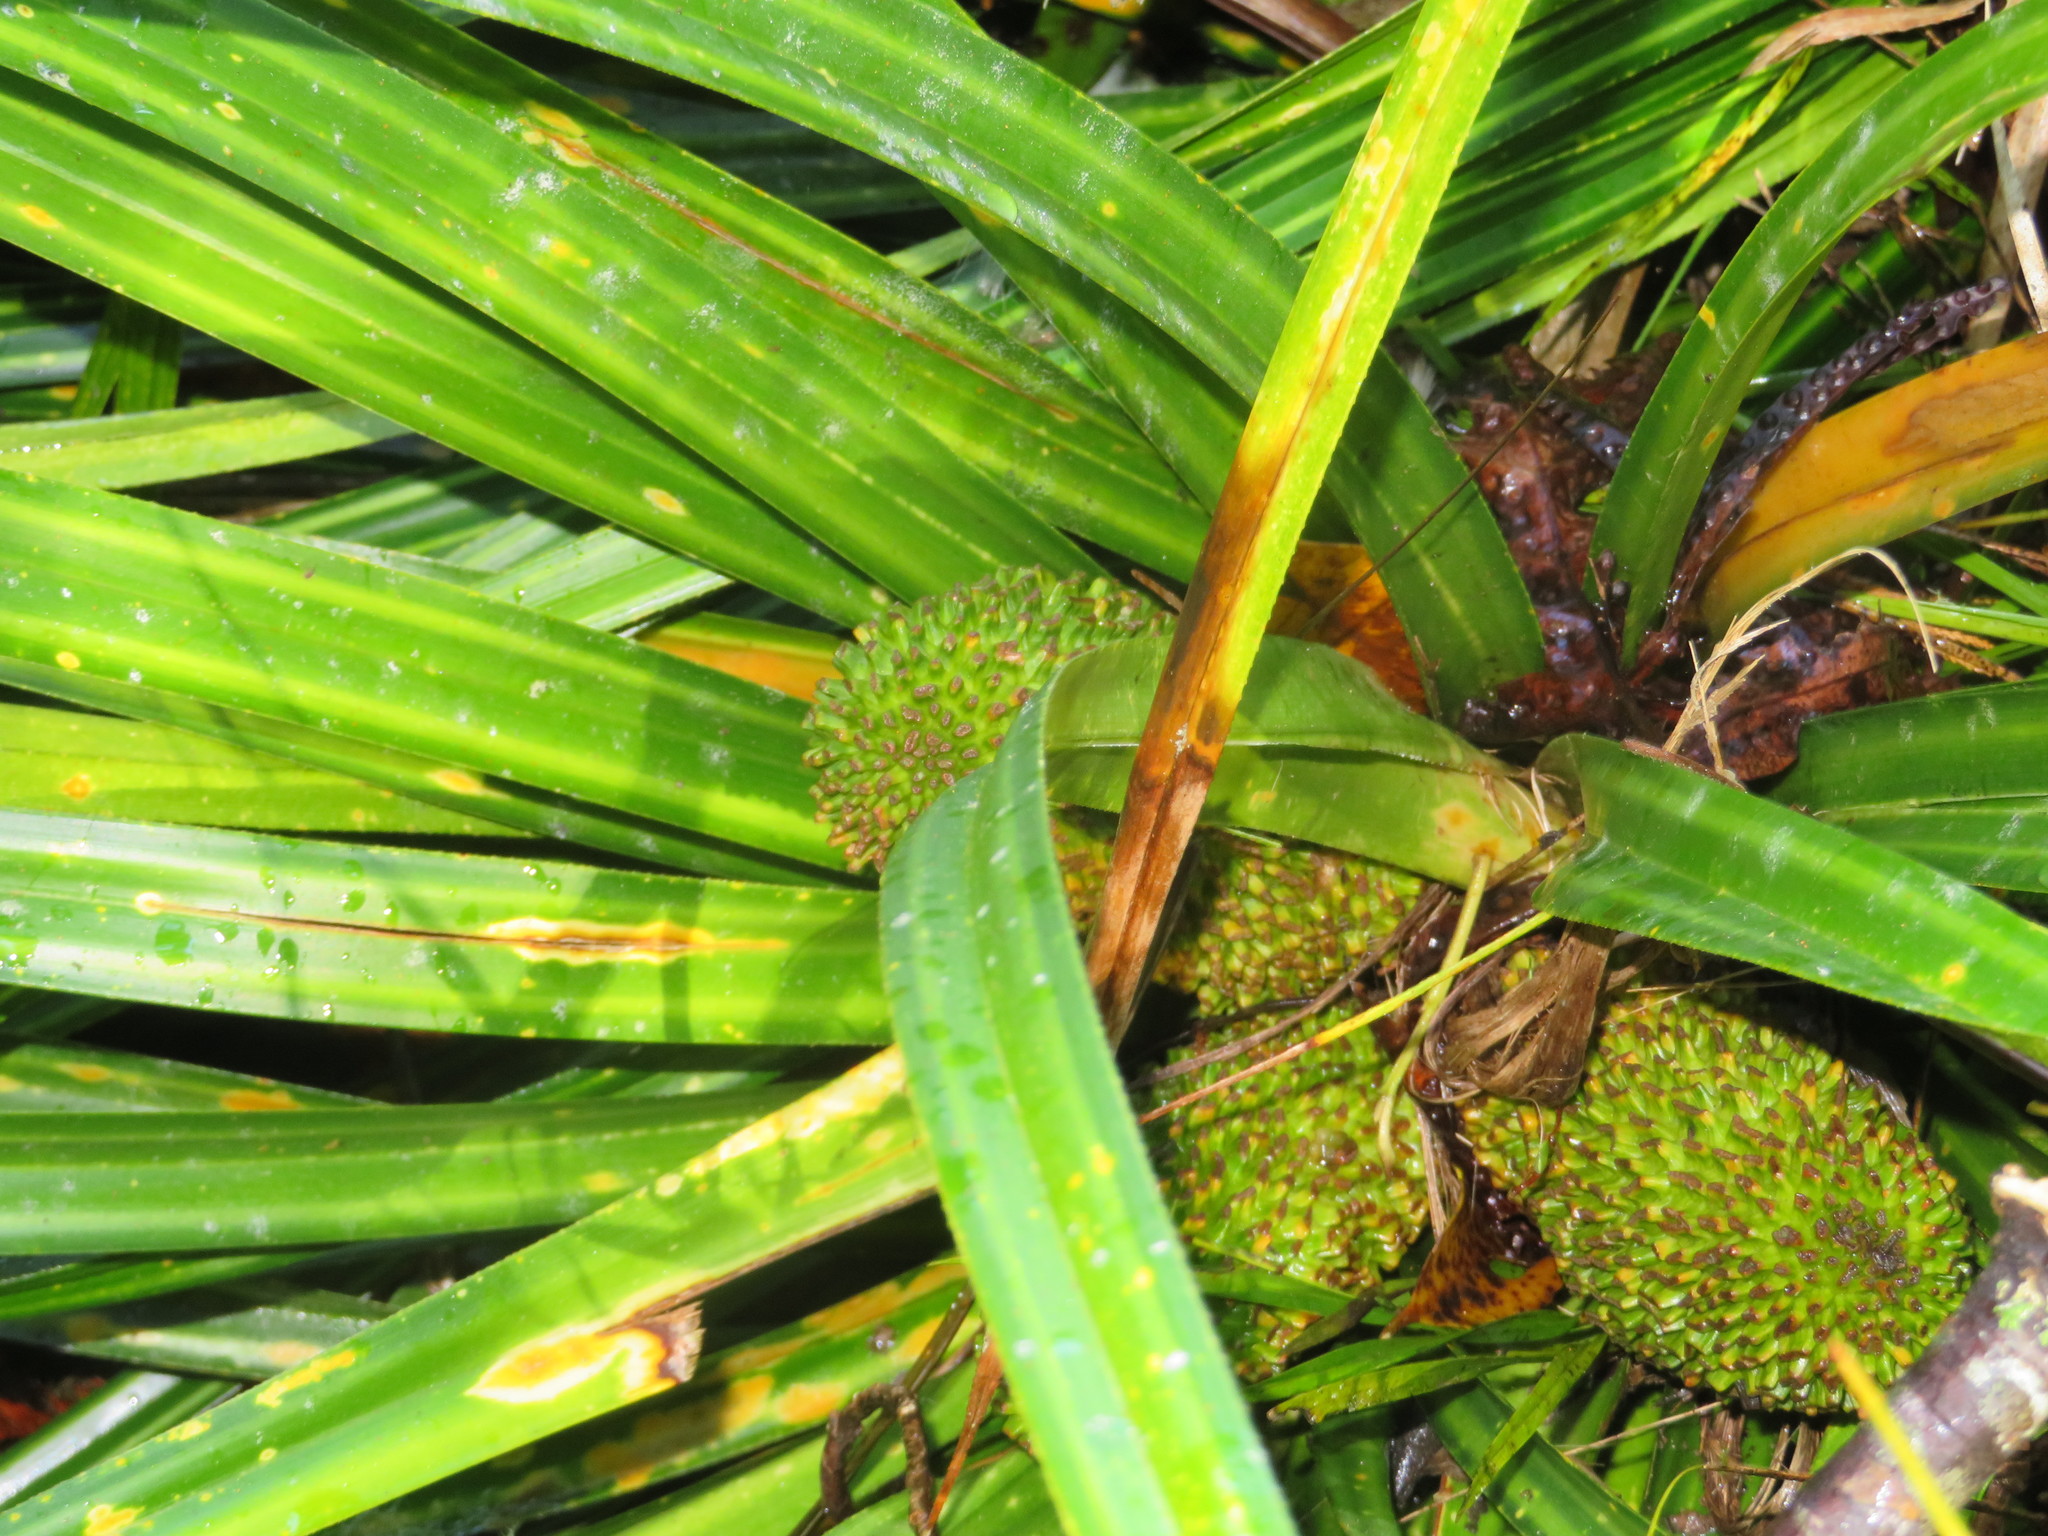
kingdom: Plantae
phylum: Tracheophyta
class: Liliopsida
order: Pandanales
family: Pandanaceae
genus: Freycinetia
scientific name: Freycinetia banksii
